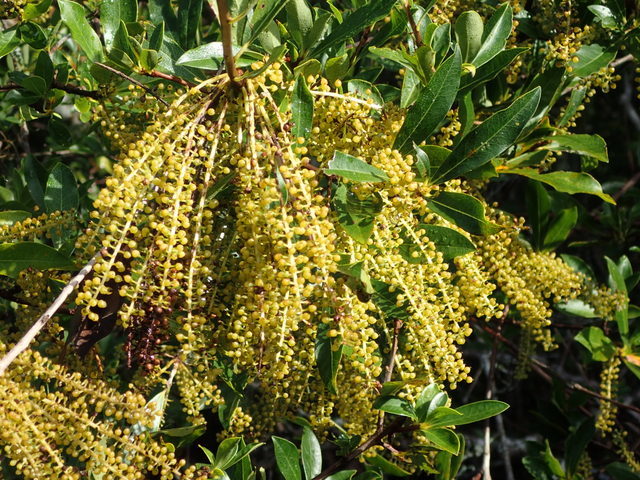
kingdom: Plantae
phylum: Tracheophyta
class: Magnoliopsida
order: Ericales
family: Cyrillaceae
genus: Cyrilla
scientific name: Cyrilla racemiflora
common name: Black titi
